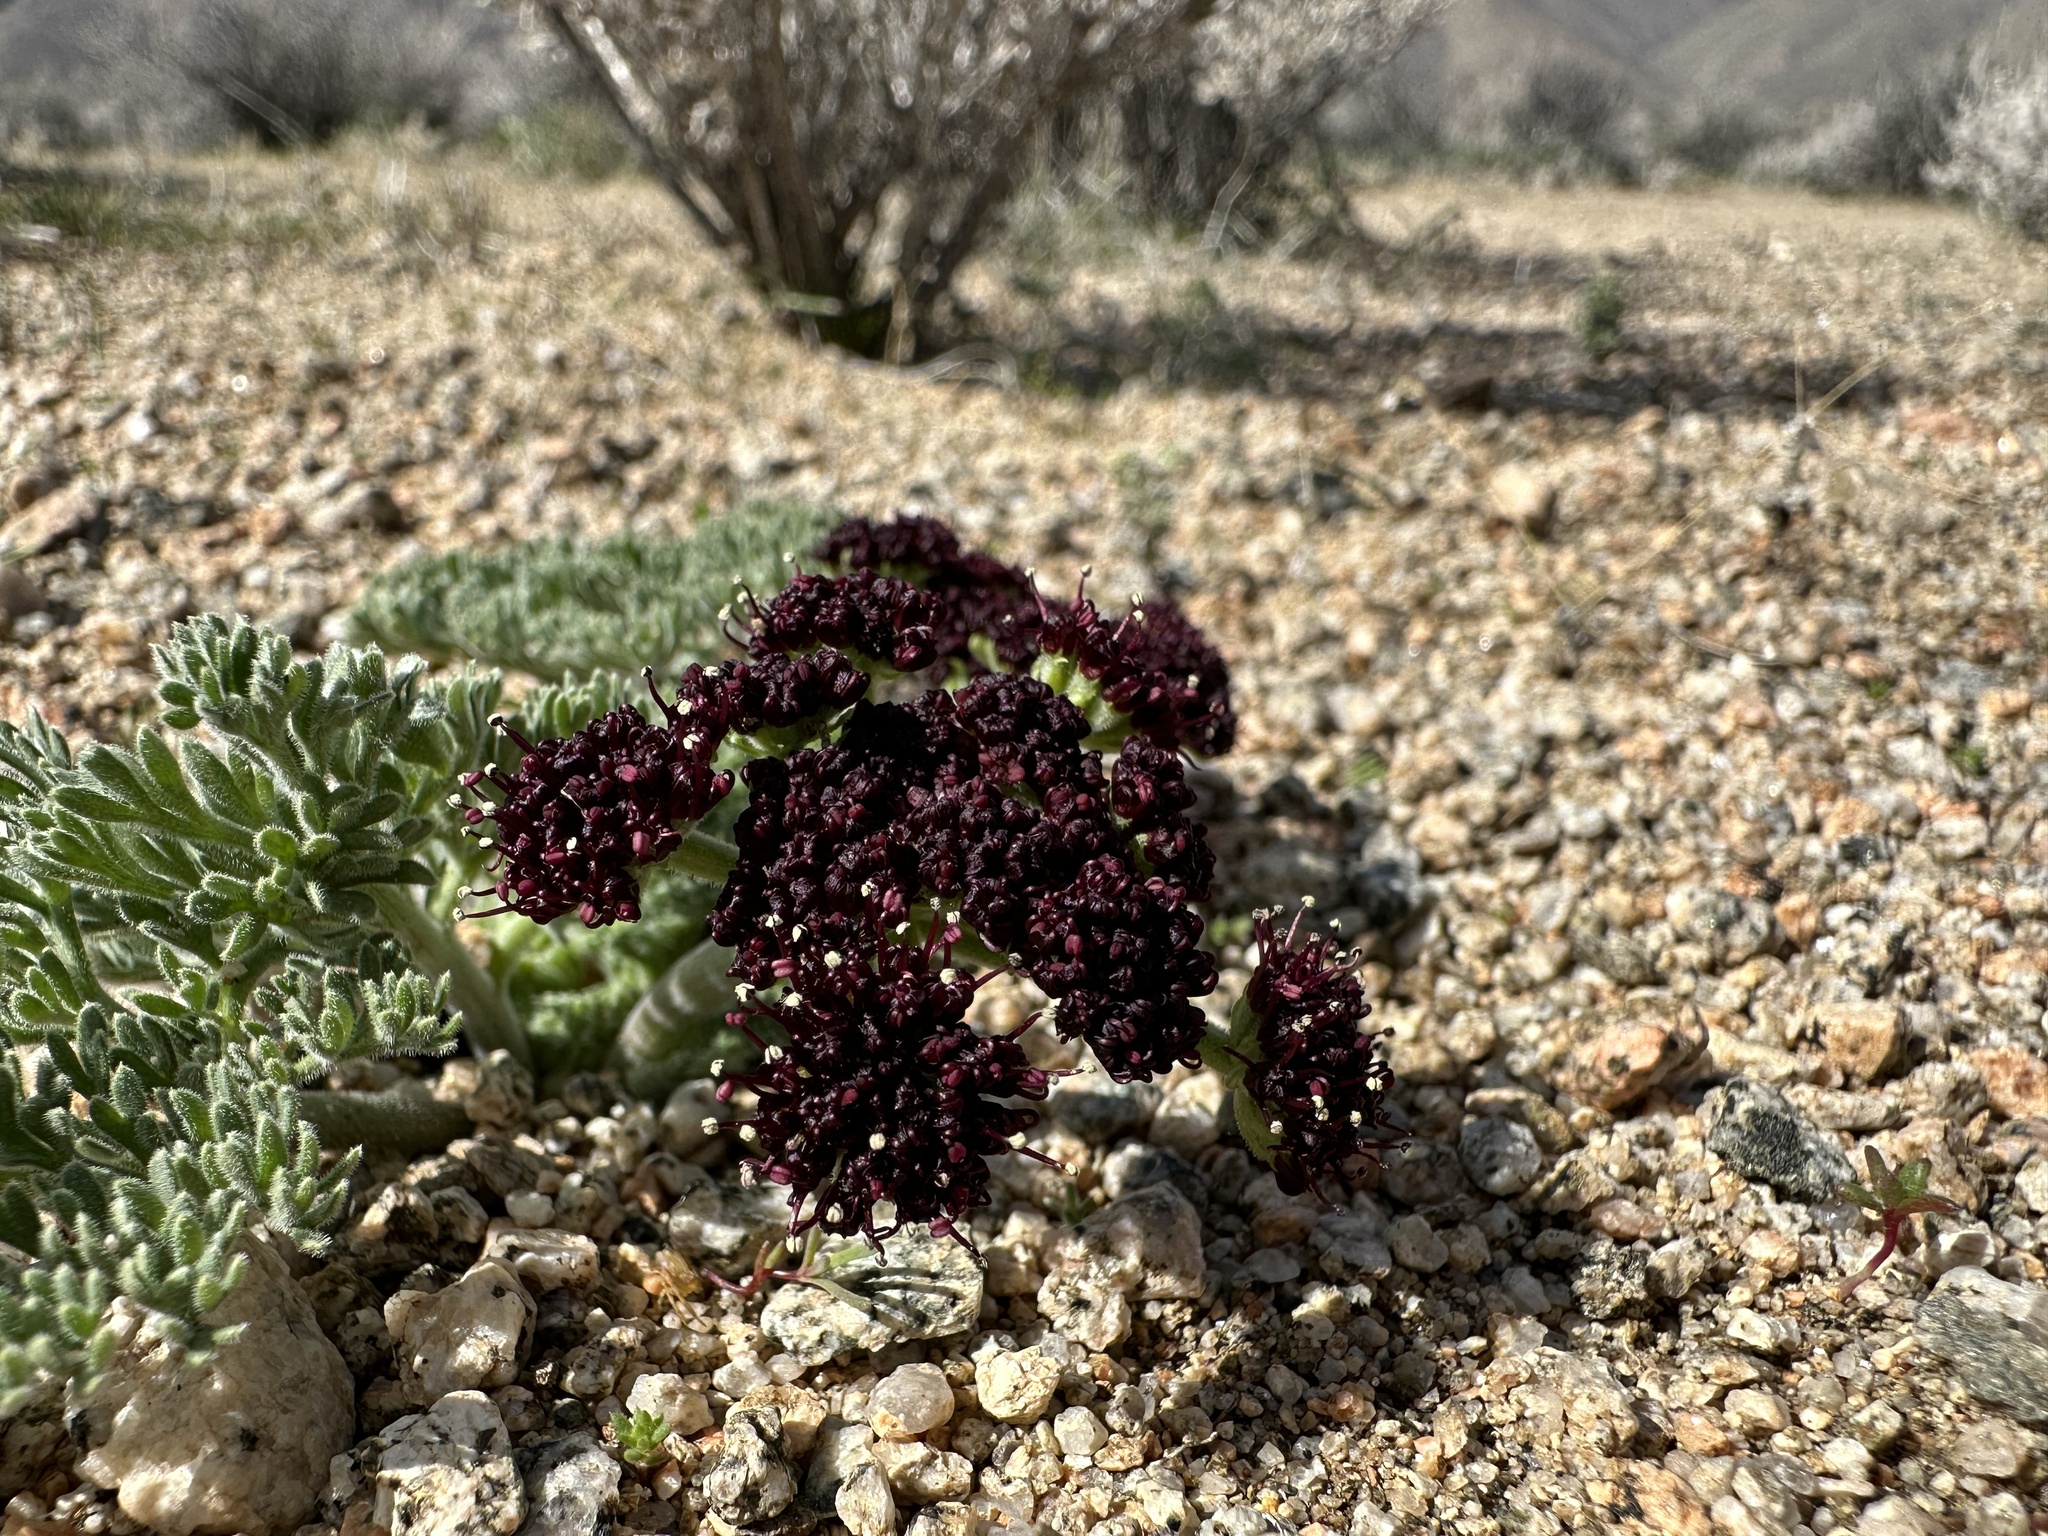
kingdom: Plantae
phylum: Tracheophyta
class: Magnoliopsida
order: Apiales
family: Apiaceae
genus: Lomatium
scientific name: Lomatium mohavense
